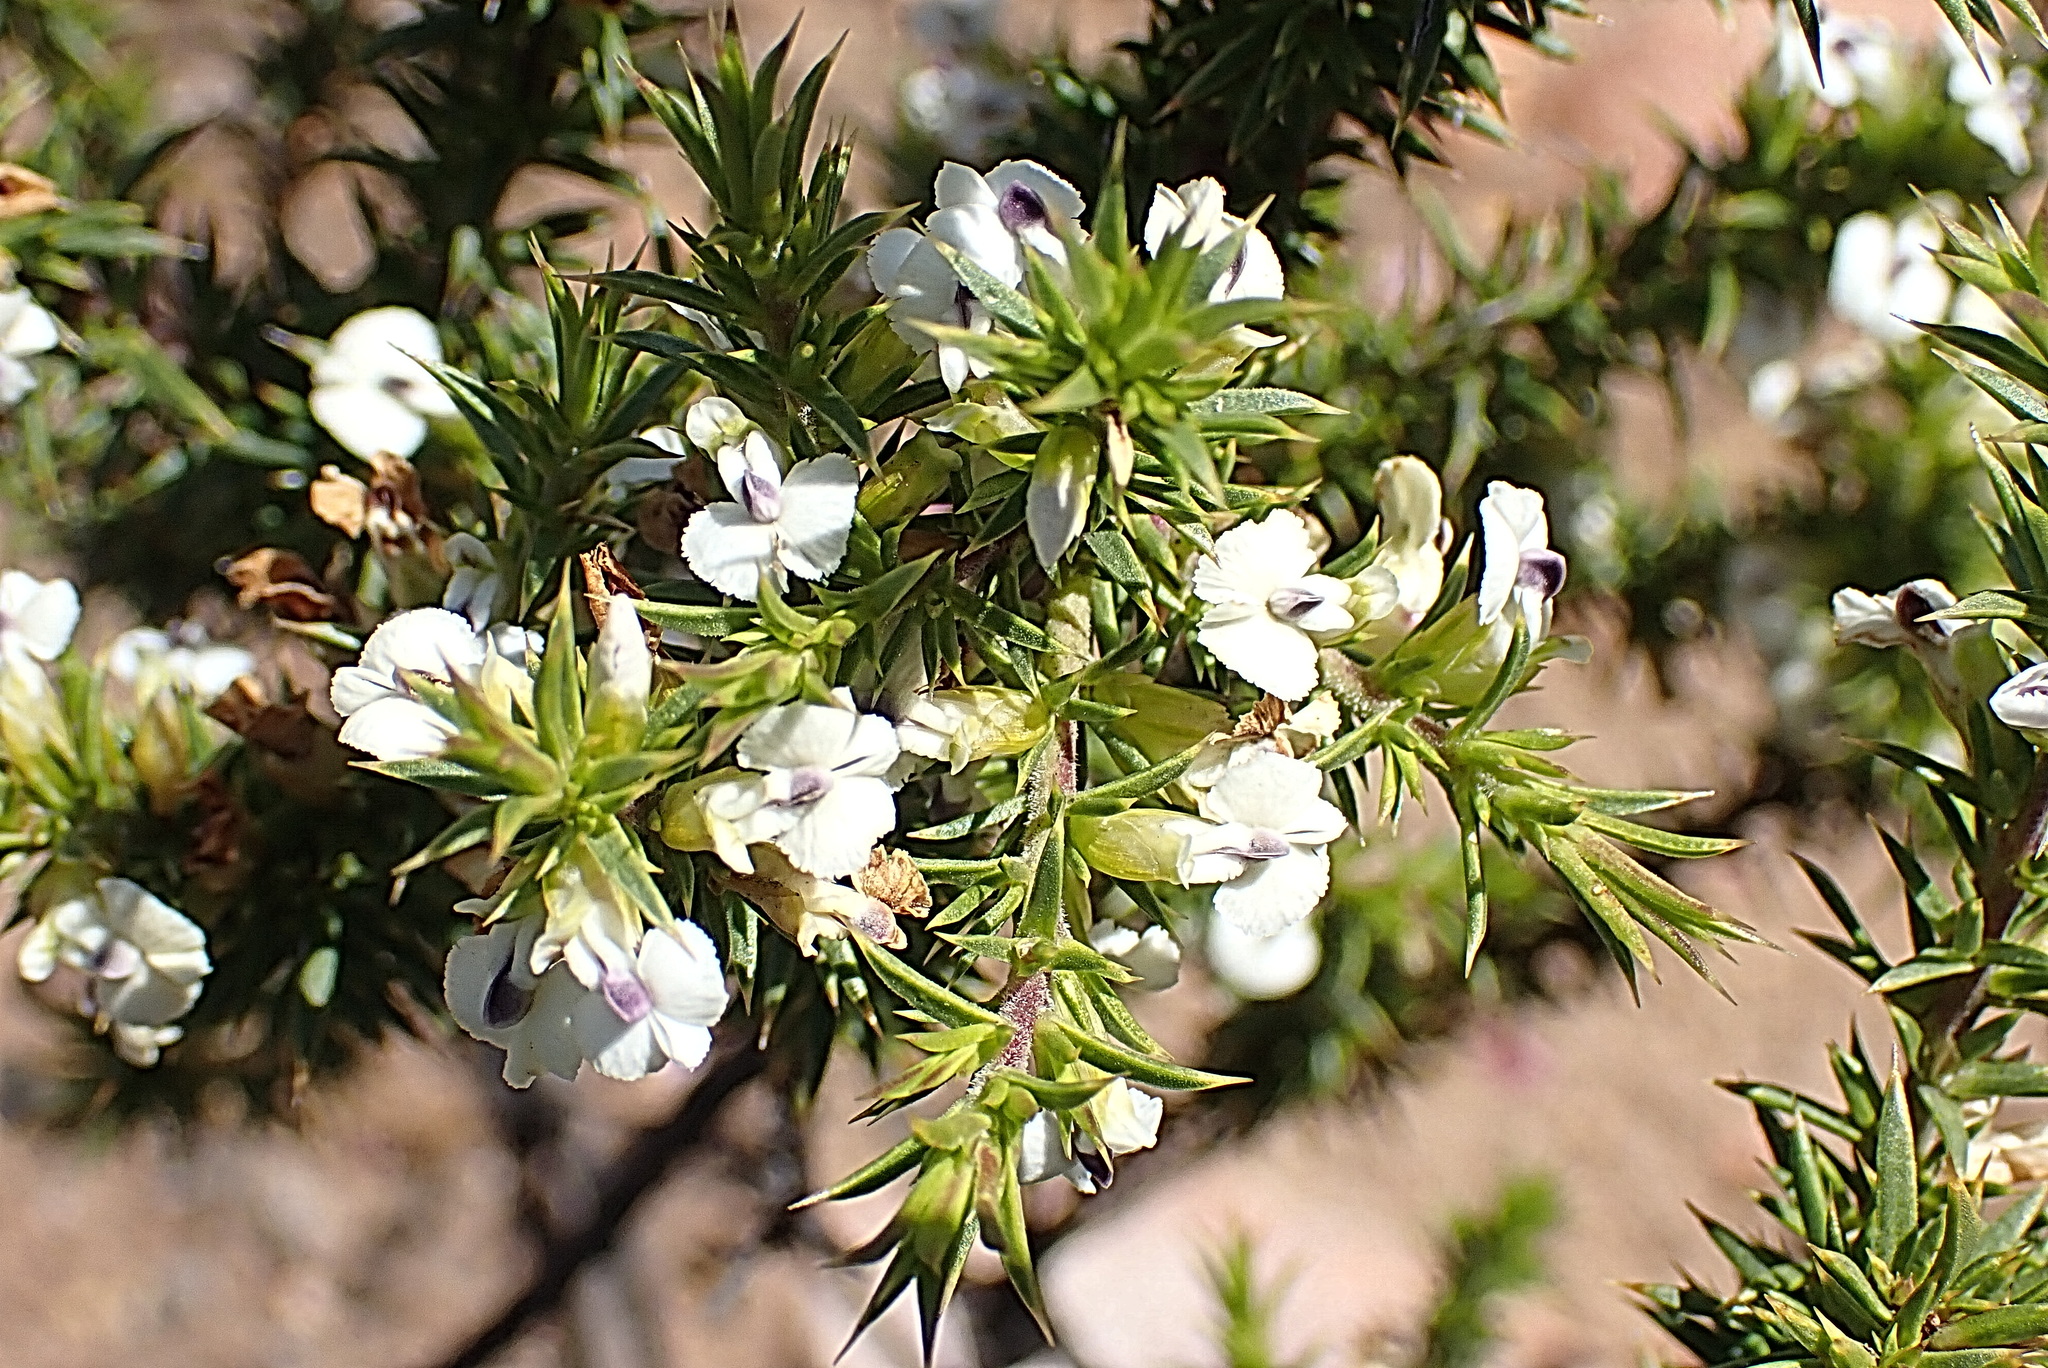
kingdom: Plantae
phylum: Tracheophyta
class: Magnoliopsida
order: Fabales
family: Polygalaceae
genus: Muraltia
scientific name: Muraltia ericifolia
